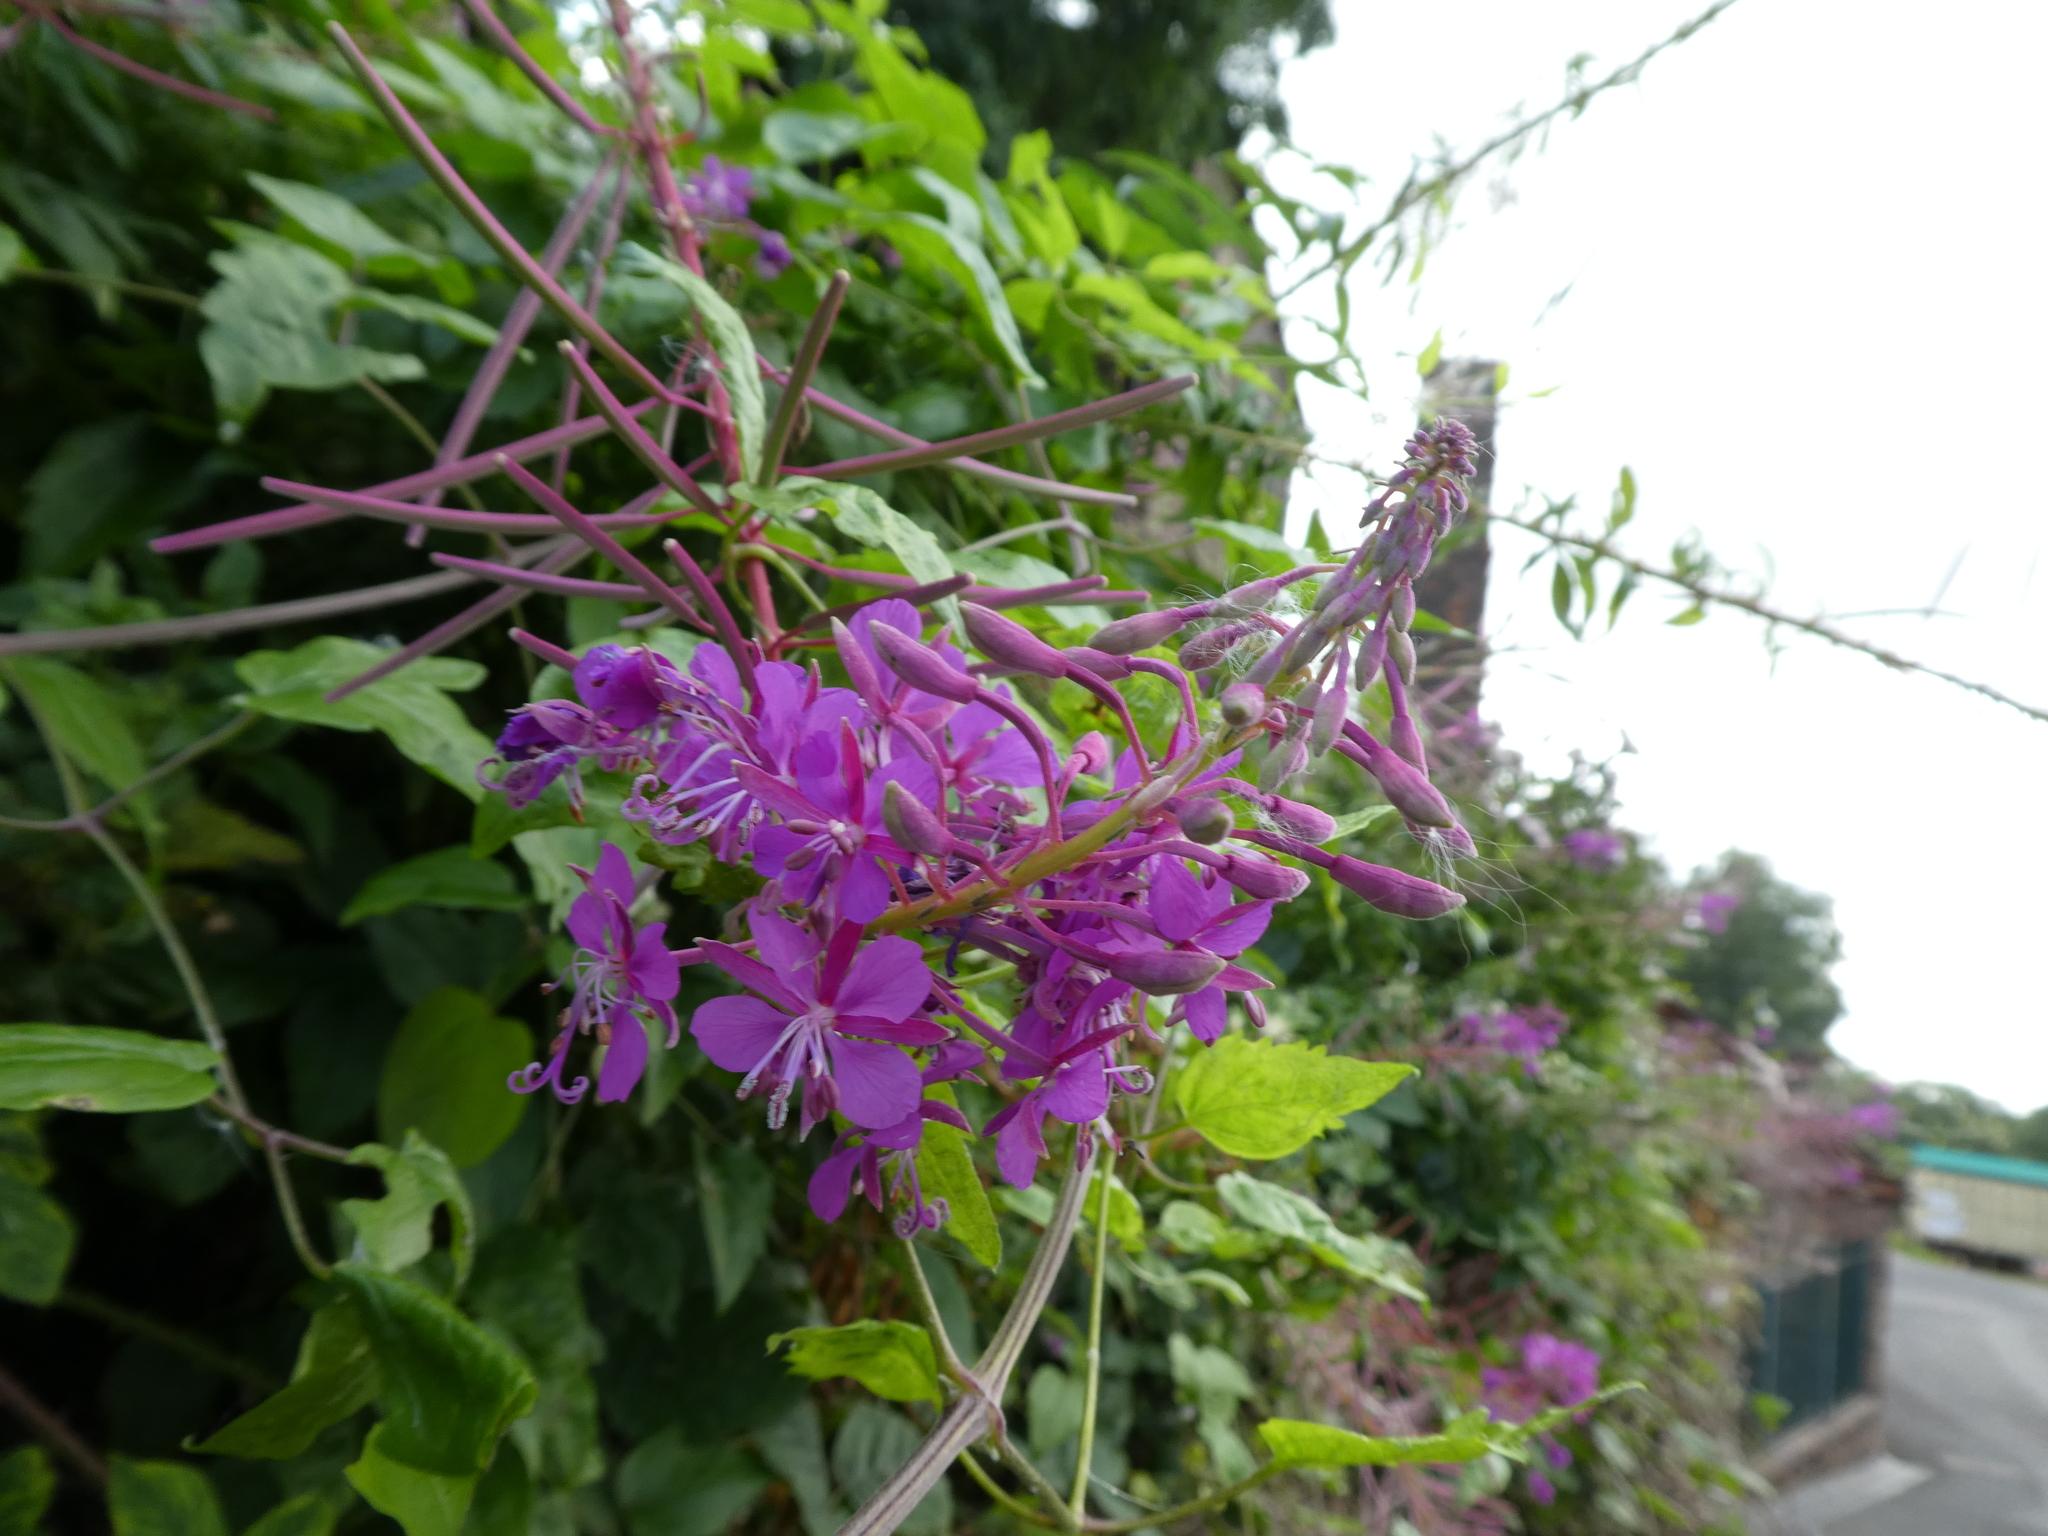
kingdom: Plantae
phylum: Tracheophyta
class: Magnoliopsida
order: Myrtales
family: Onagraceae
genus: Chamaenerion
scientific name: Chamaenerion angustifolium
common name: Fireweed
